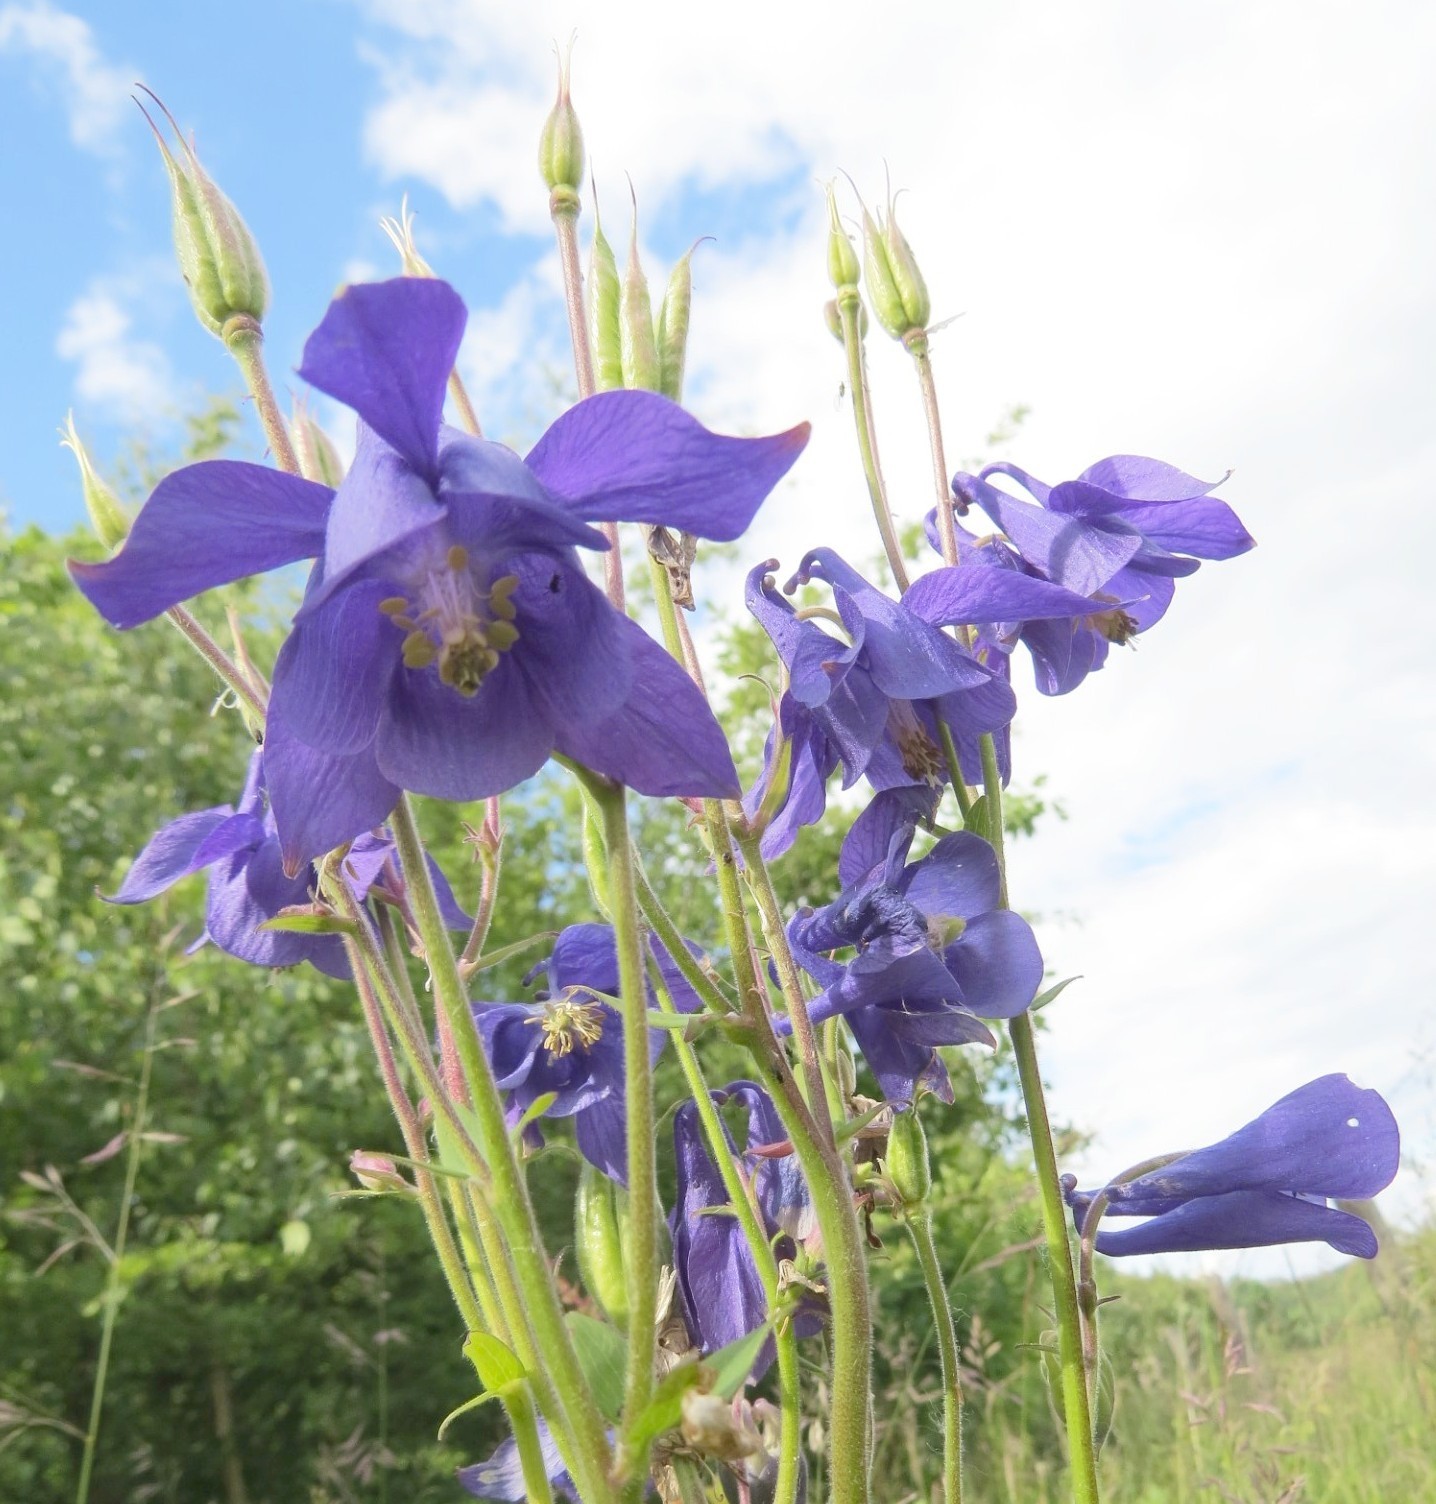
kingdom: Plantae
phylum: Tracheophyta
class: Magnoliopsida
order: Ranunculales
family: Ranunculaceae
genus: Aquilegia
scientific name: Aquilegia vulgaris
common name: Columbine
